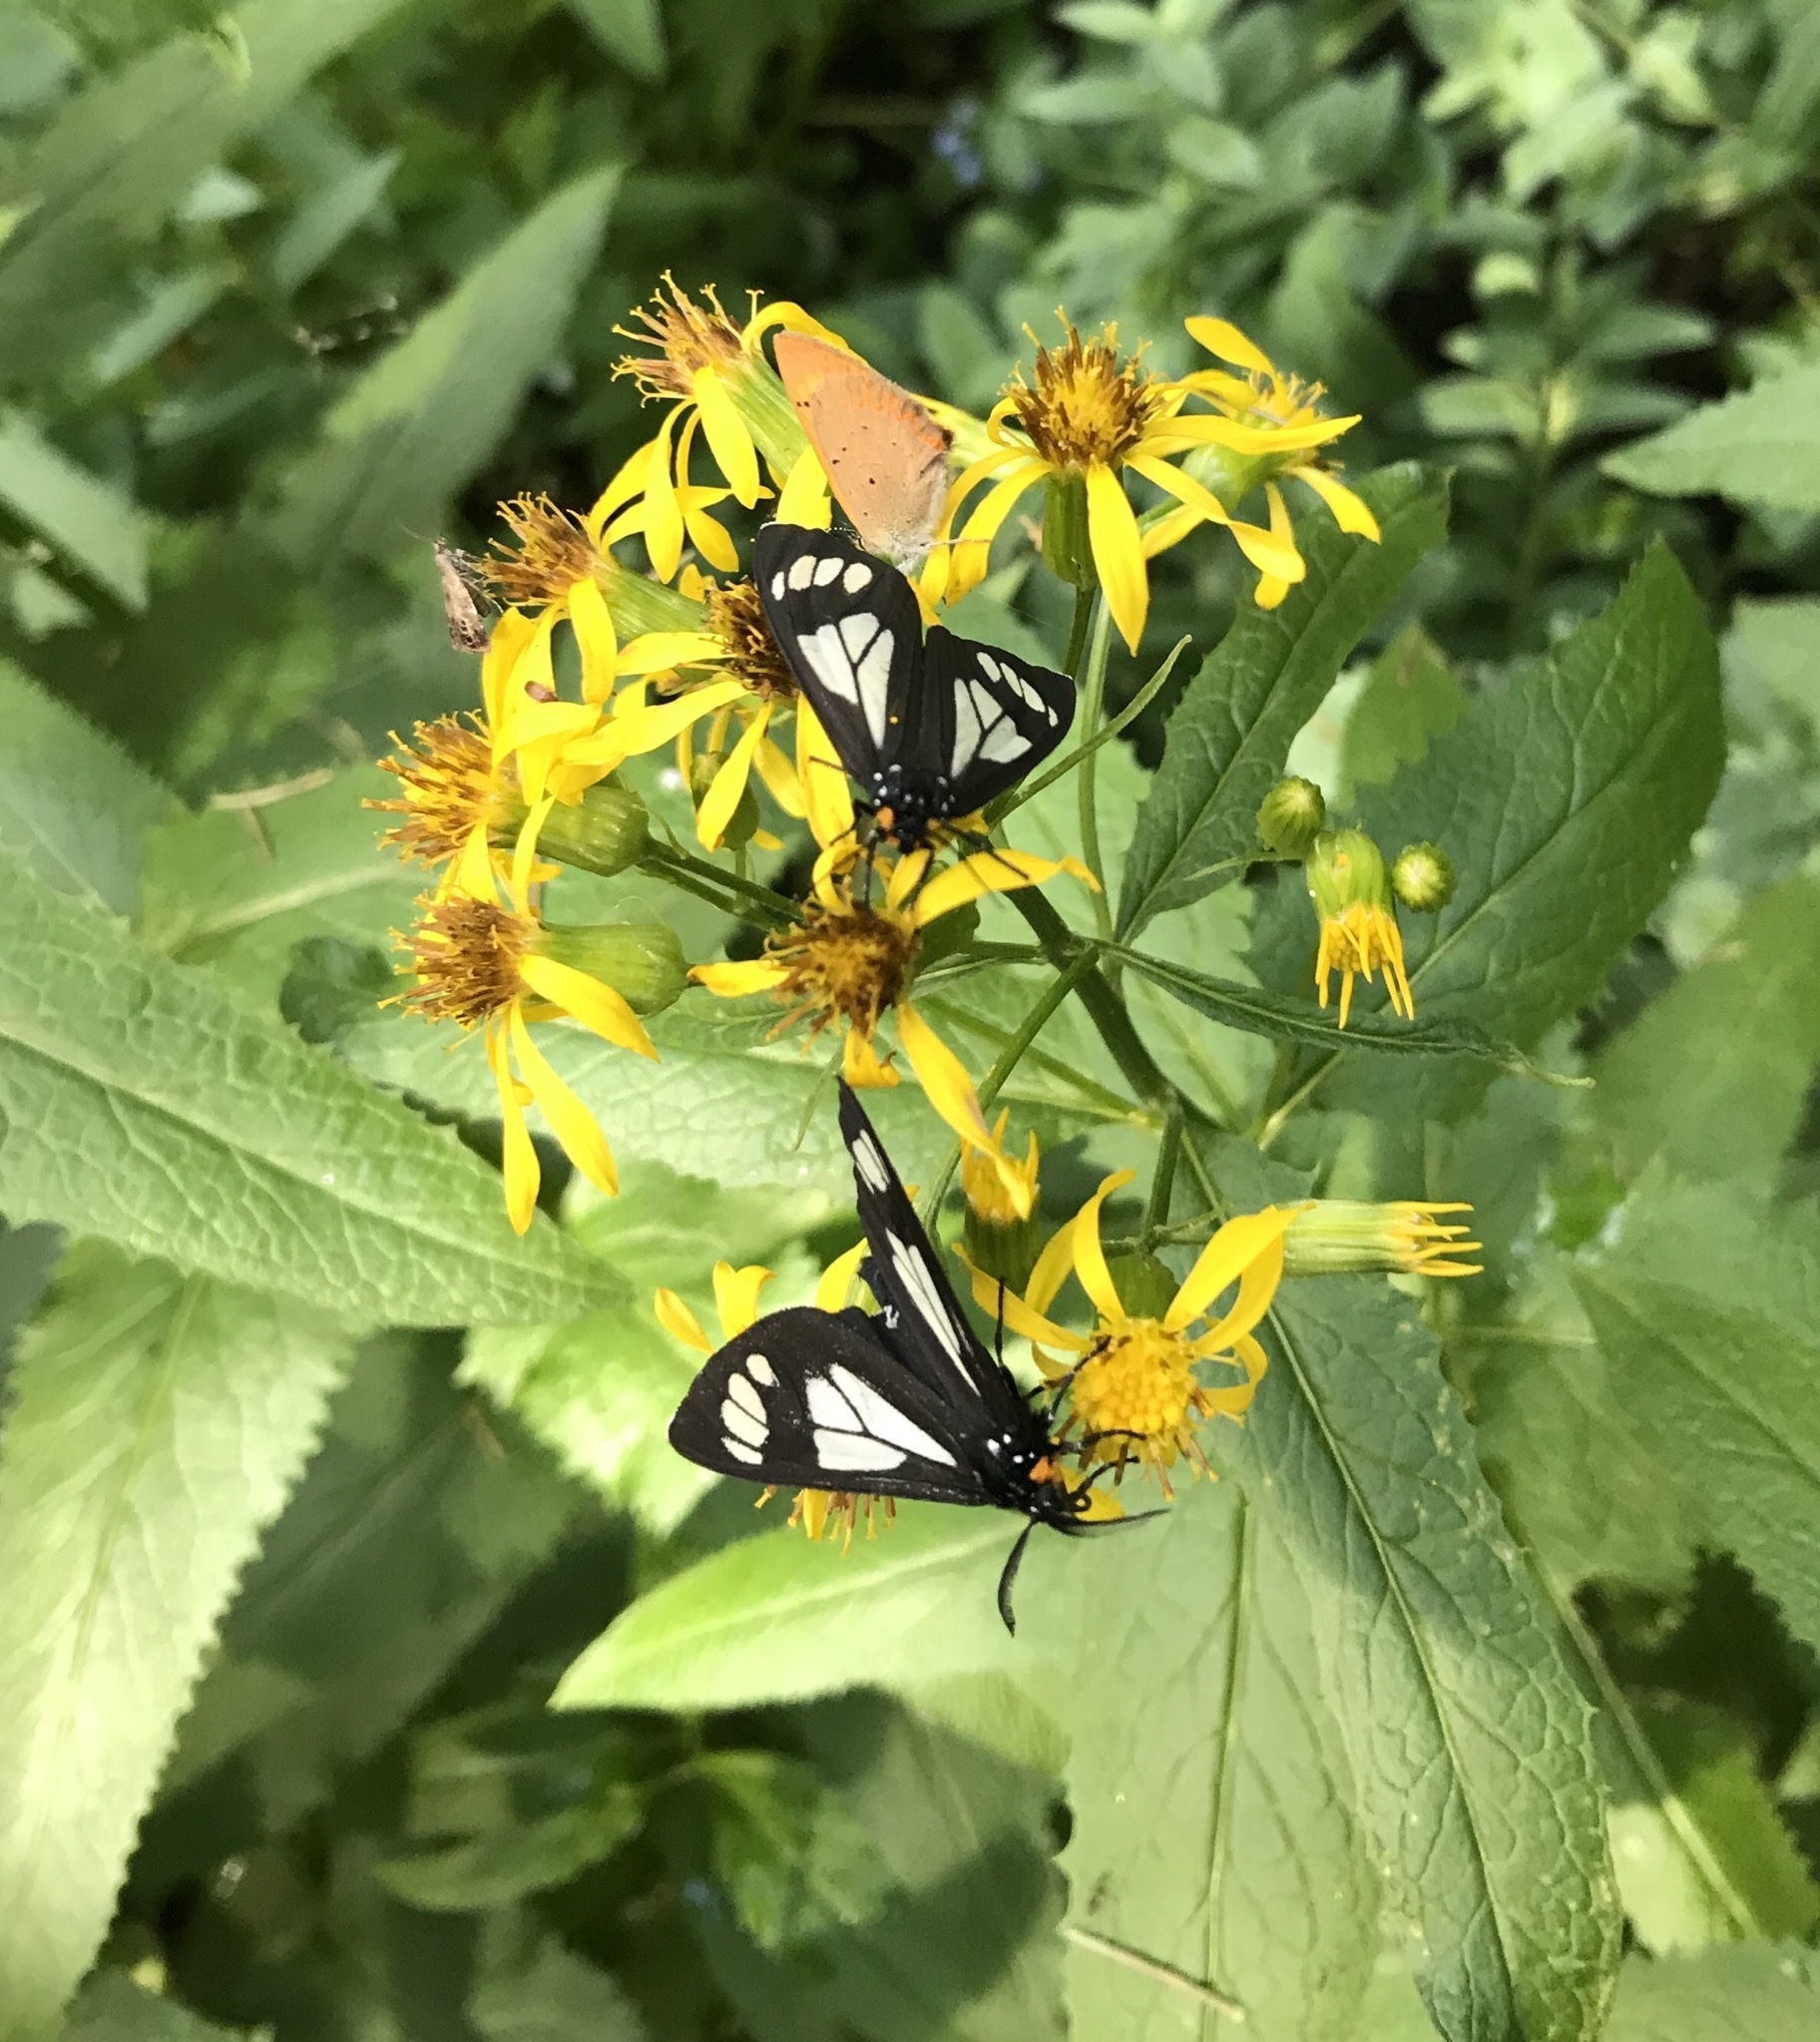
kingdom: Animalia
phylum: Arthropoda
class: Insecta
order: Lepidoptera
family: Erebidae
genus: Gnophaela
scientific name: Gnophaela vermiculata
